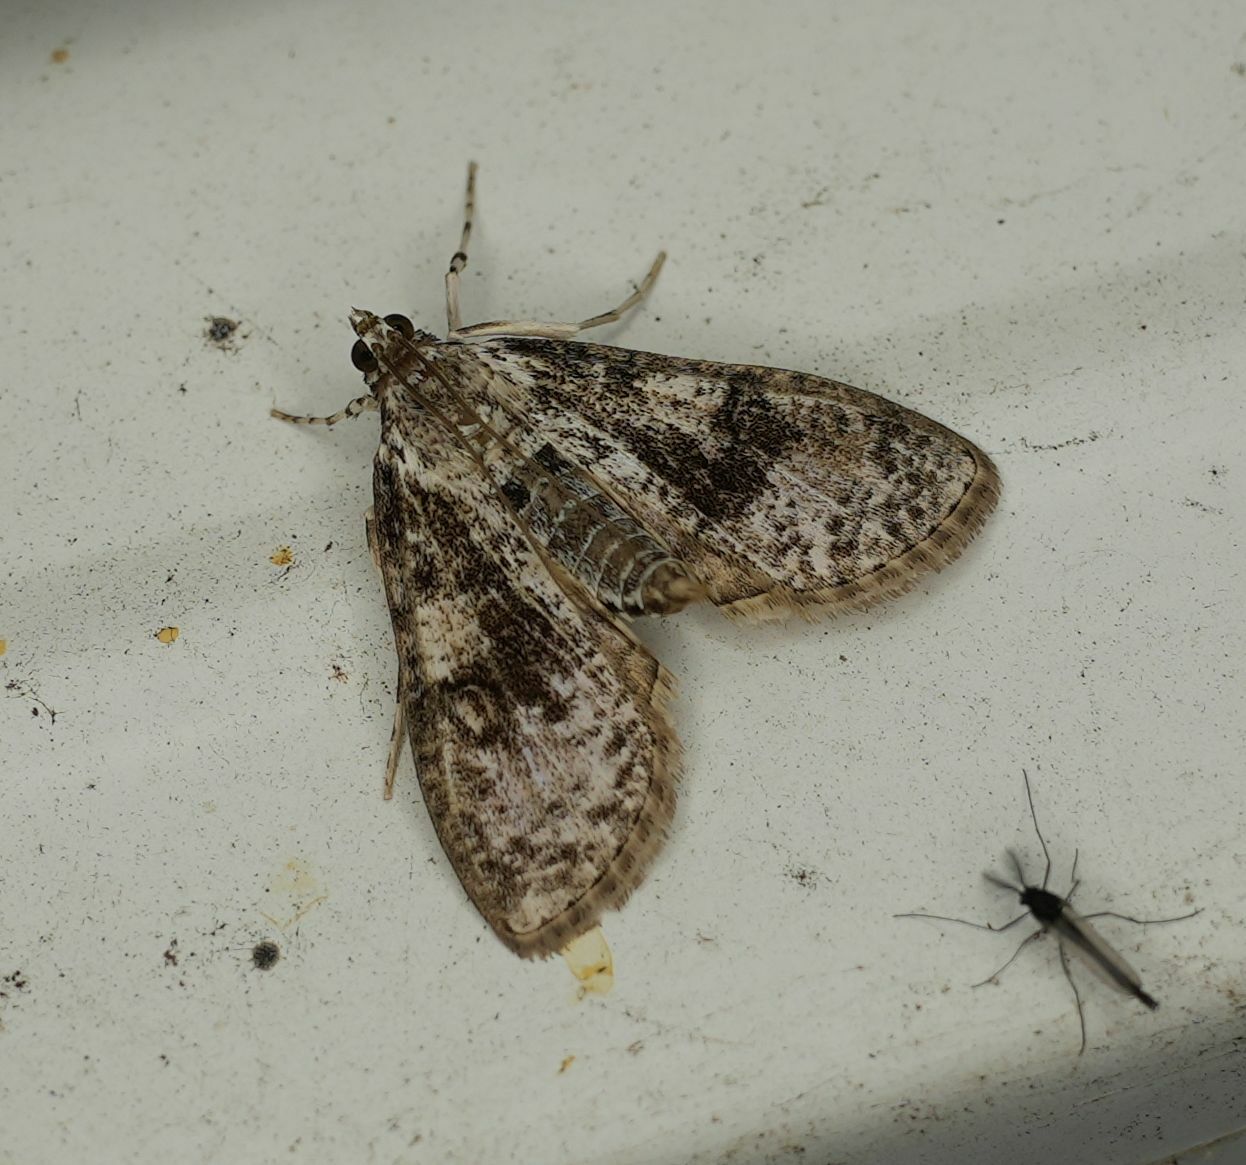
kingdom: Animalia
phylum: Arthropoda
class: Insecta
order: Lepidoptera
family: Crambidae
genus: Palpita
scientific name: Palpita magniferalis
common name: Splendid palpita moth
